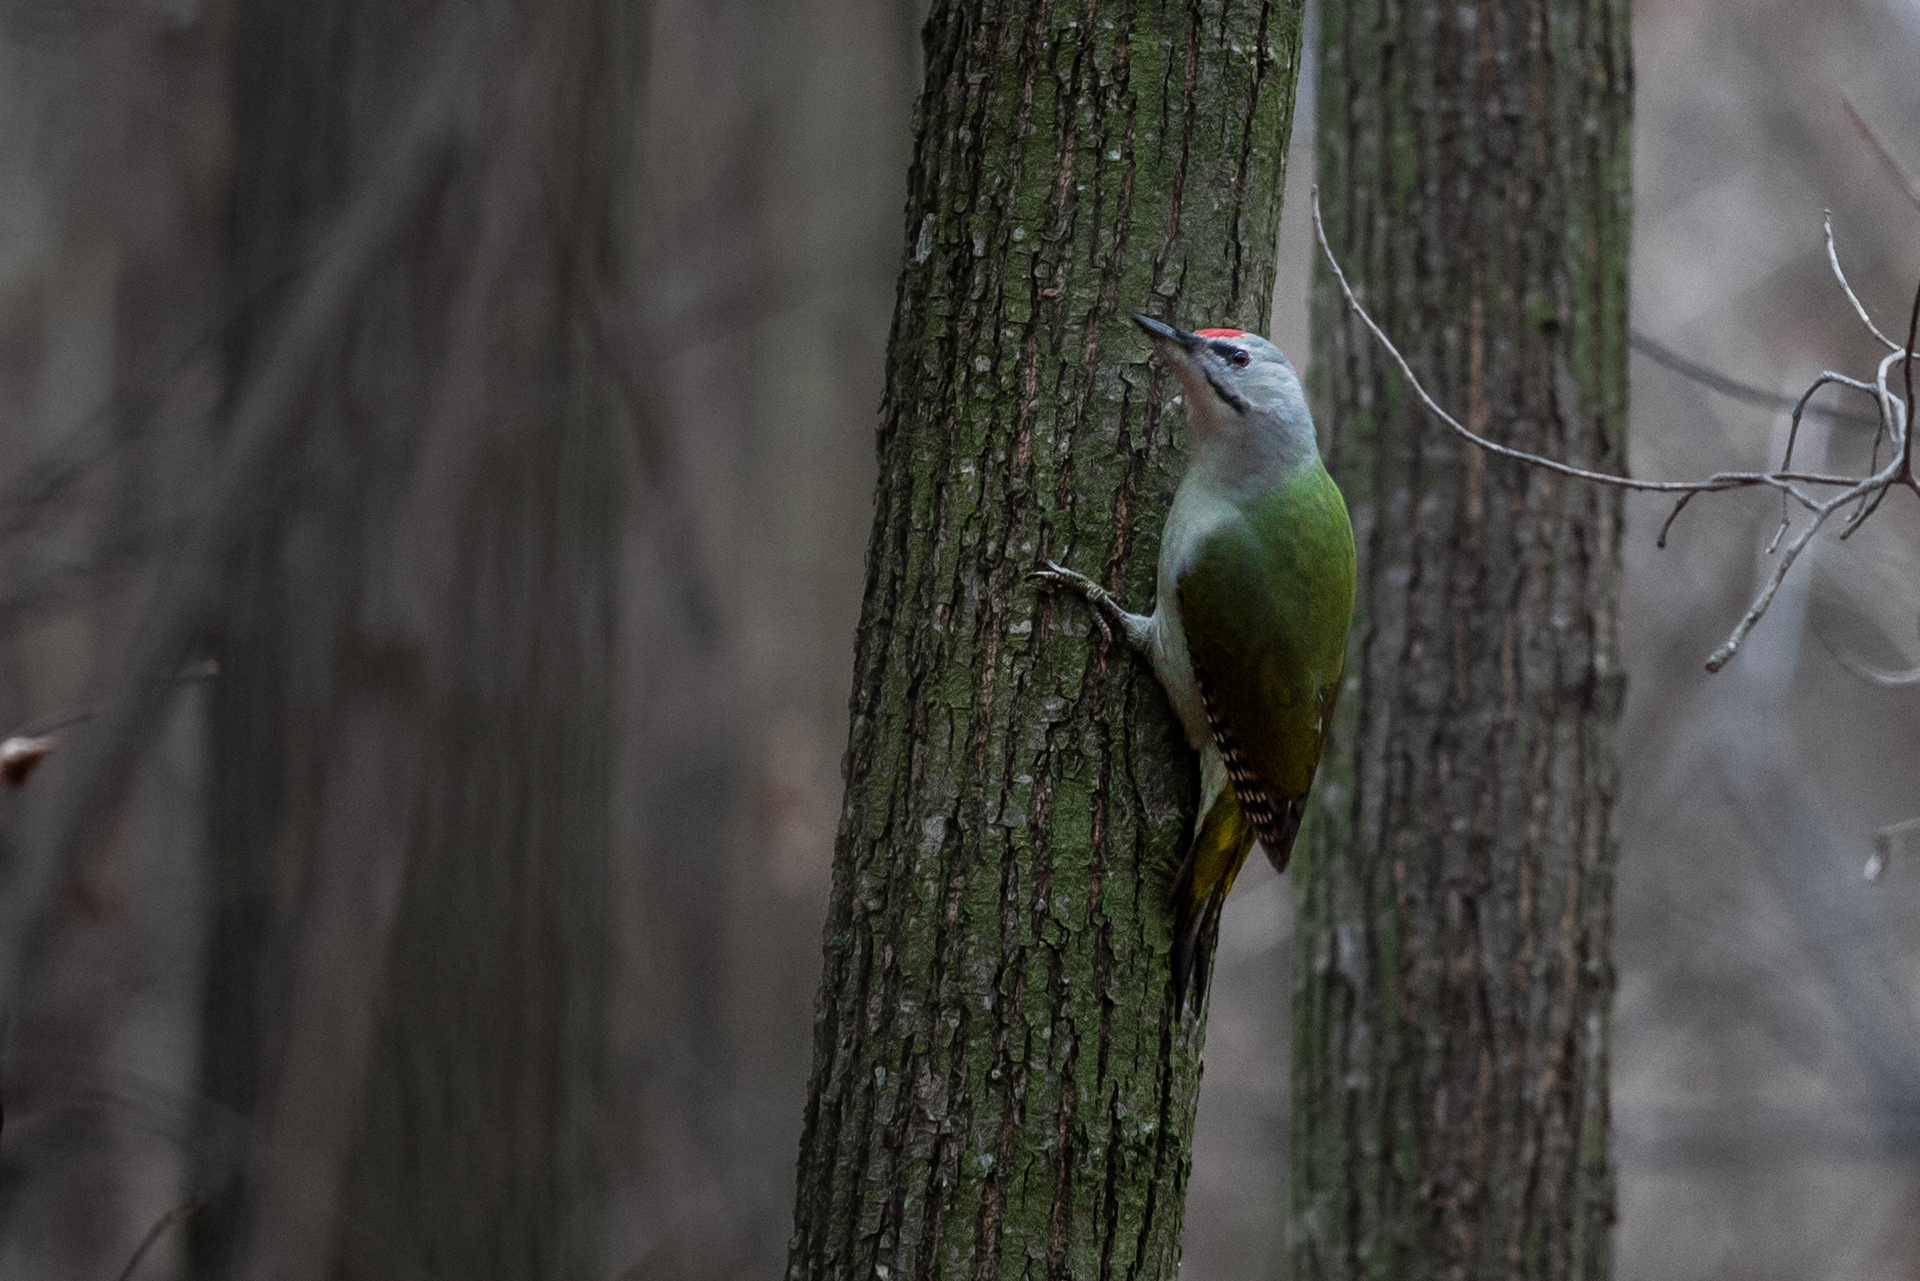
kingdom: Animalia
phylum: Chordata
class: Aves
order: Piciformes
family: Picidae
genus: Picus
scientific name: Picus canus
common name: Grey-headed woodpecker
